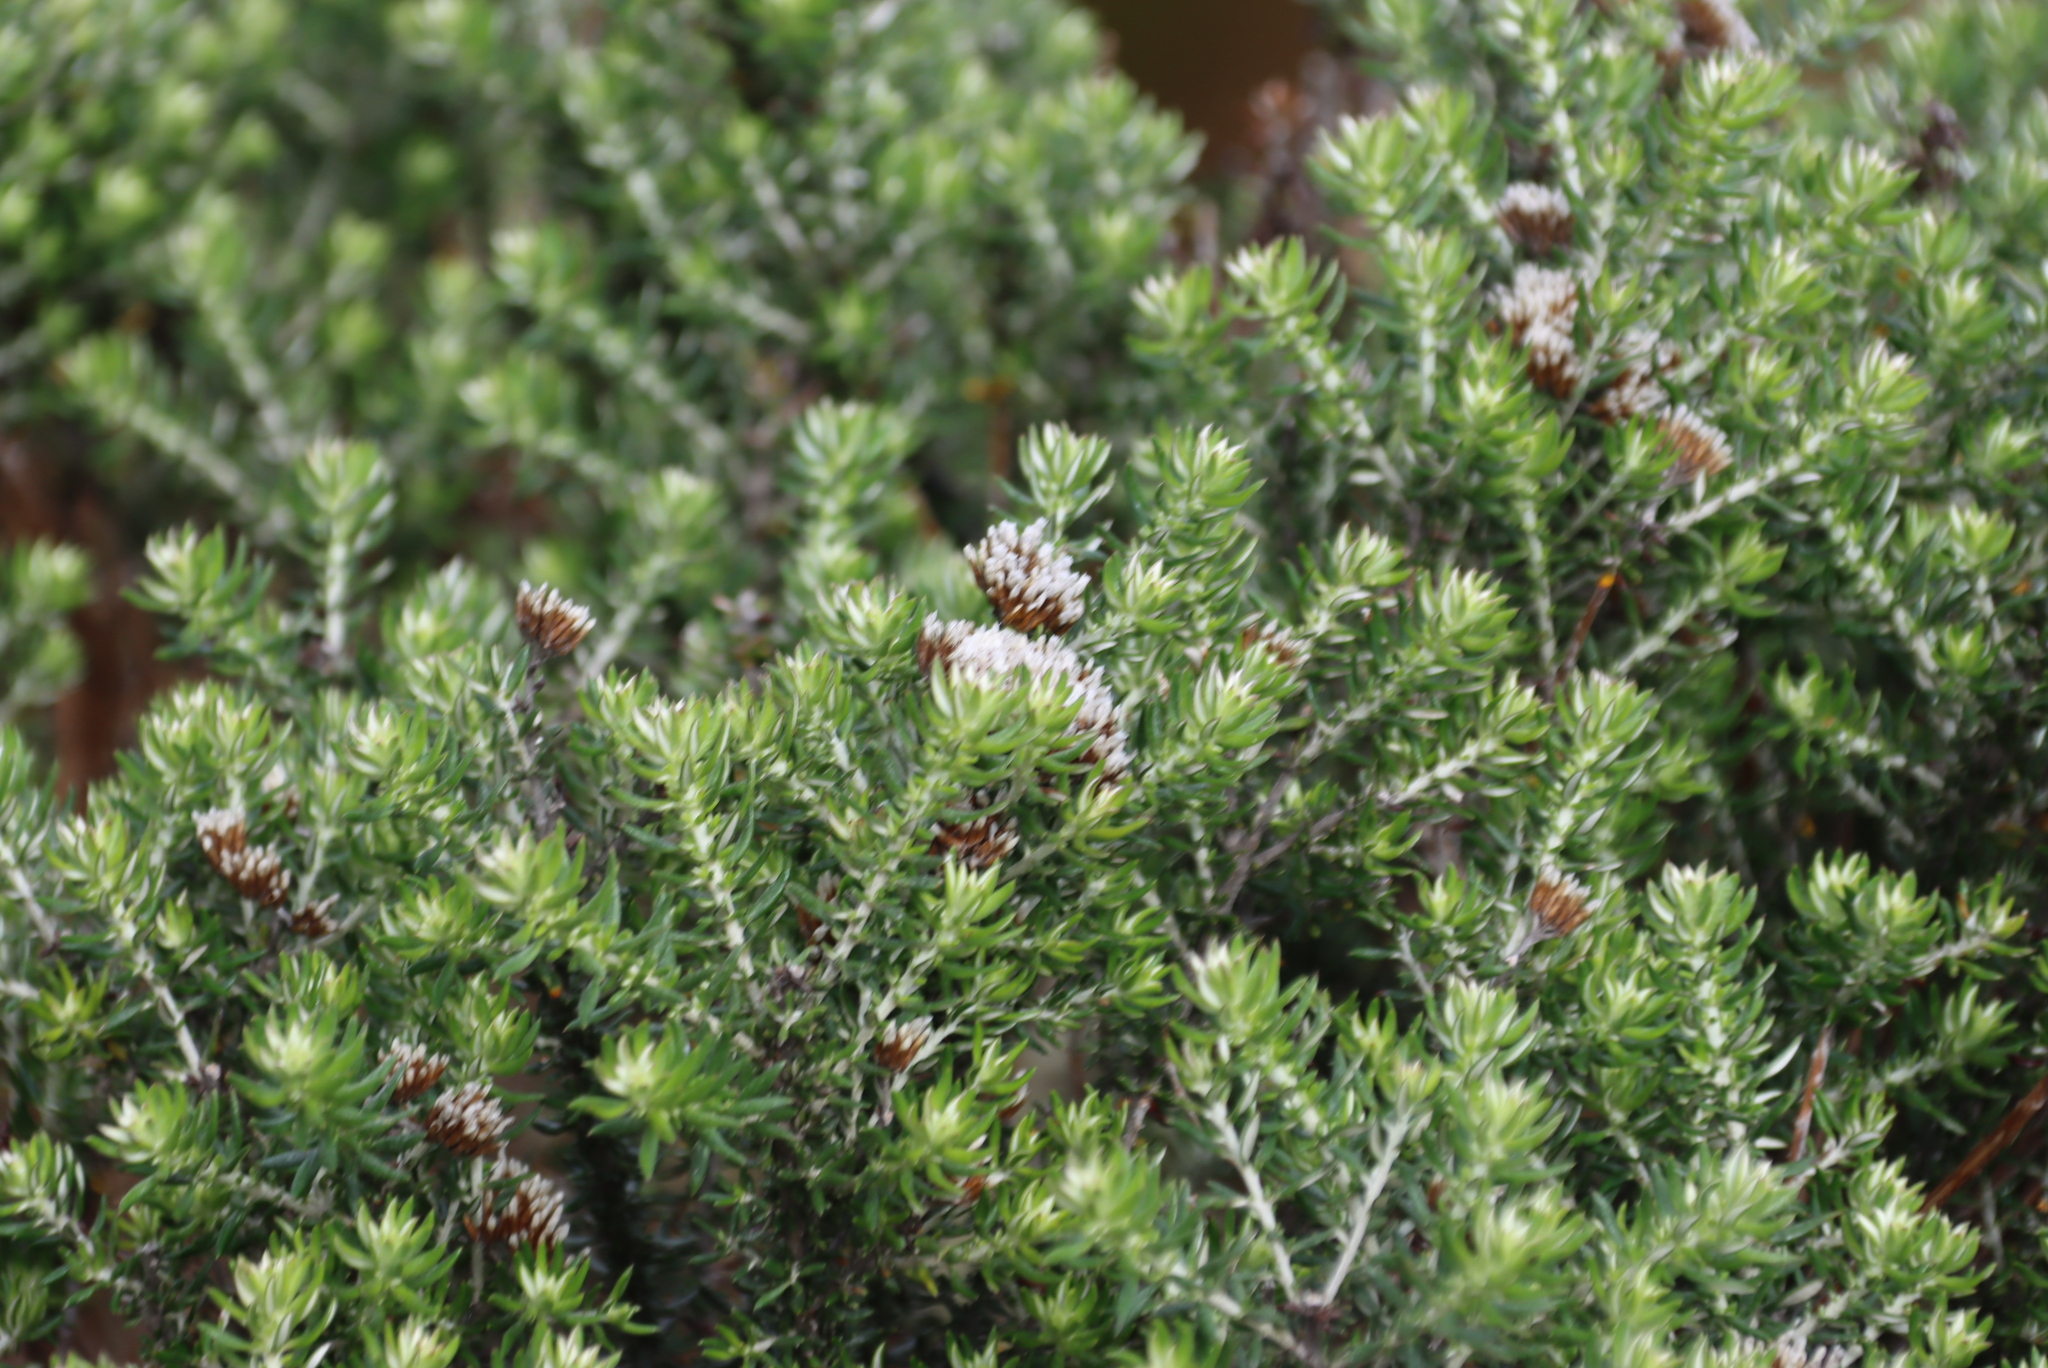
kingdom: Plantae
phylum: Tracheophyta
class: Magnoliopsida
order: Asterales
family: Asteraceae
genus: Metalasia
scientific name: Metalasia densa
